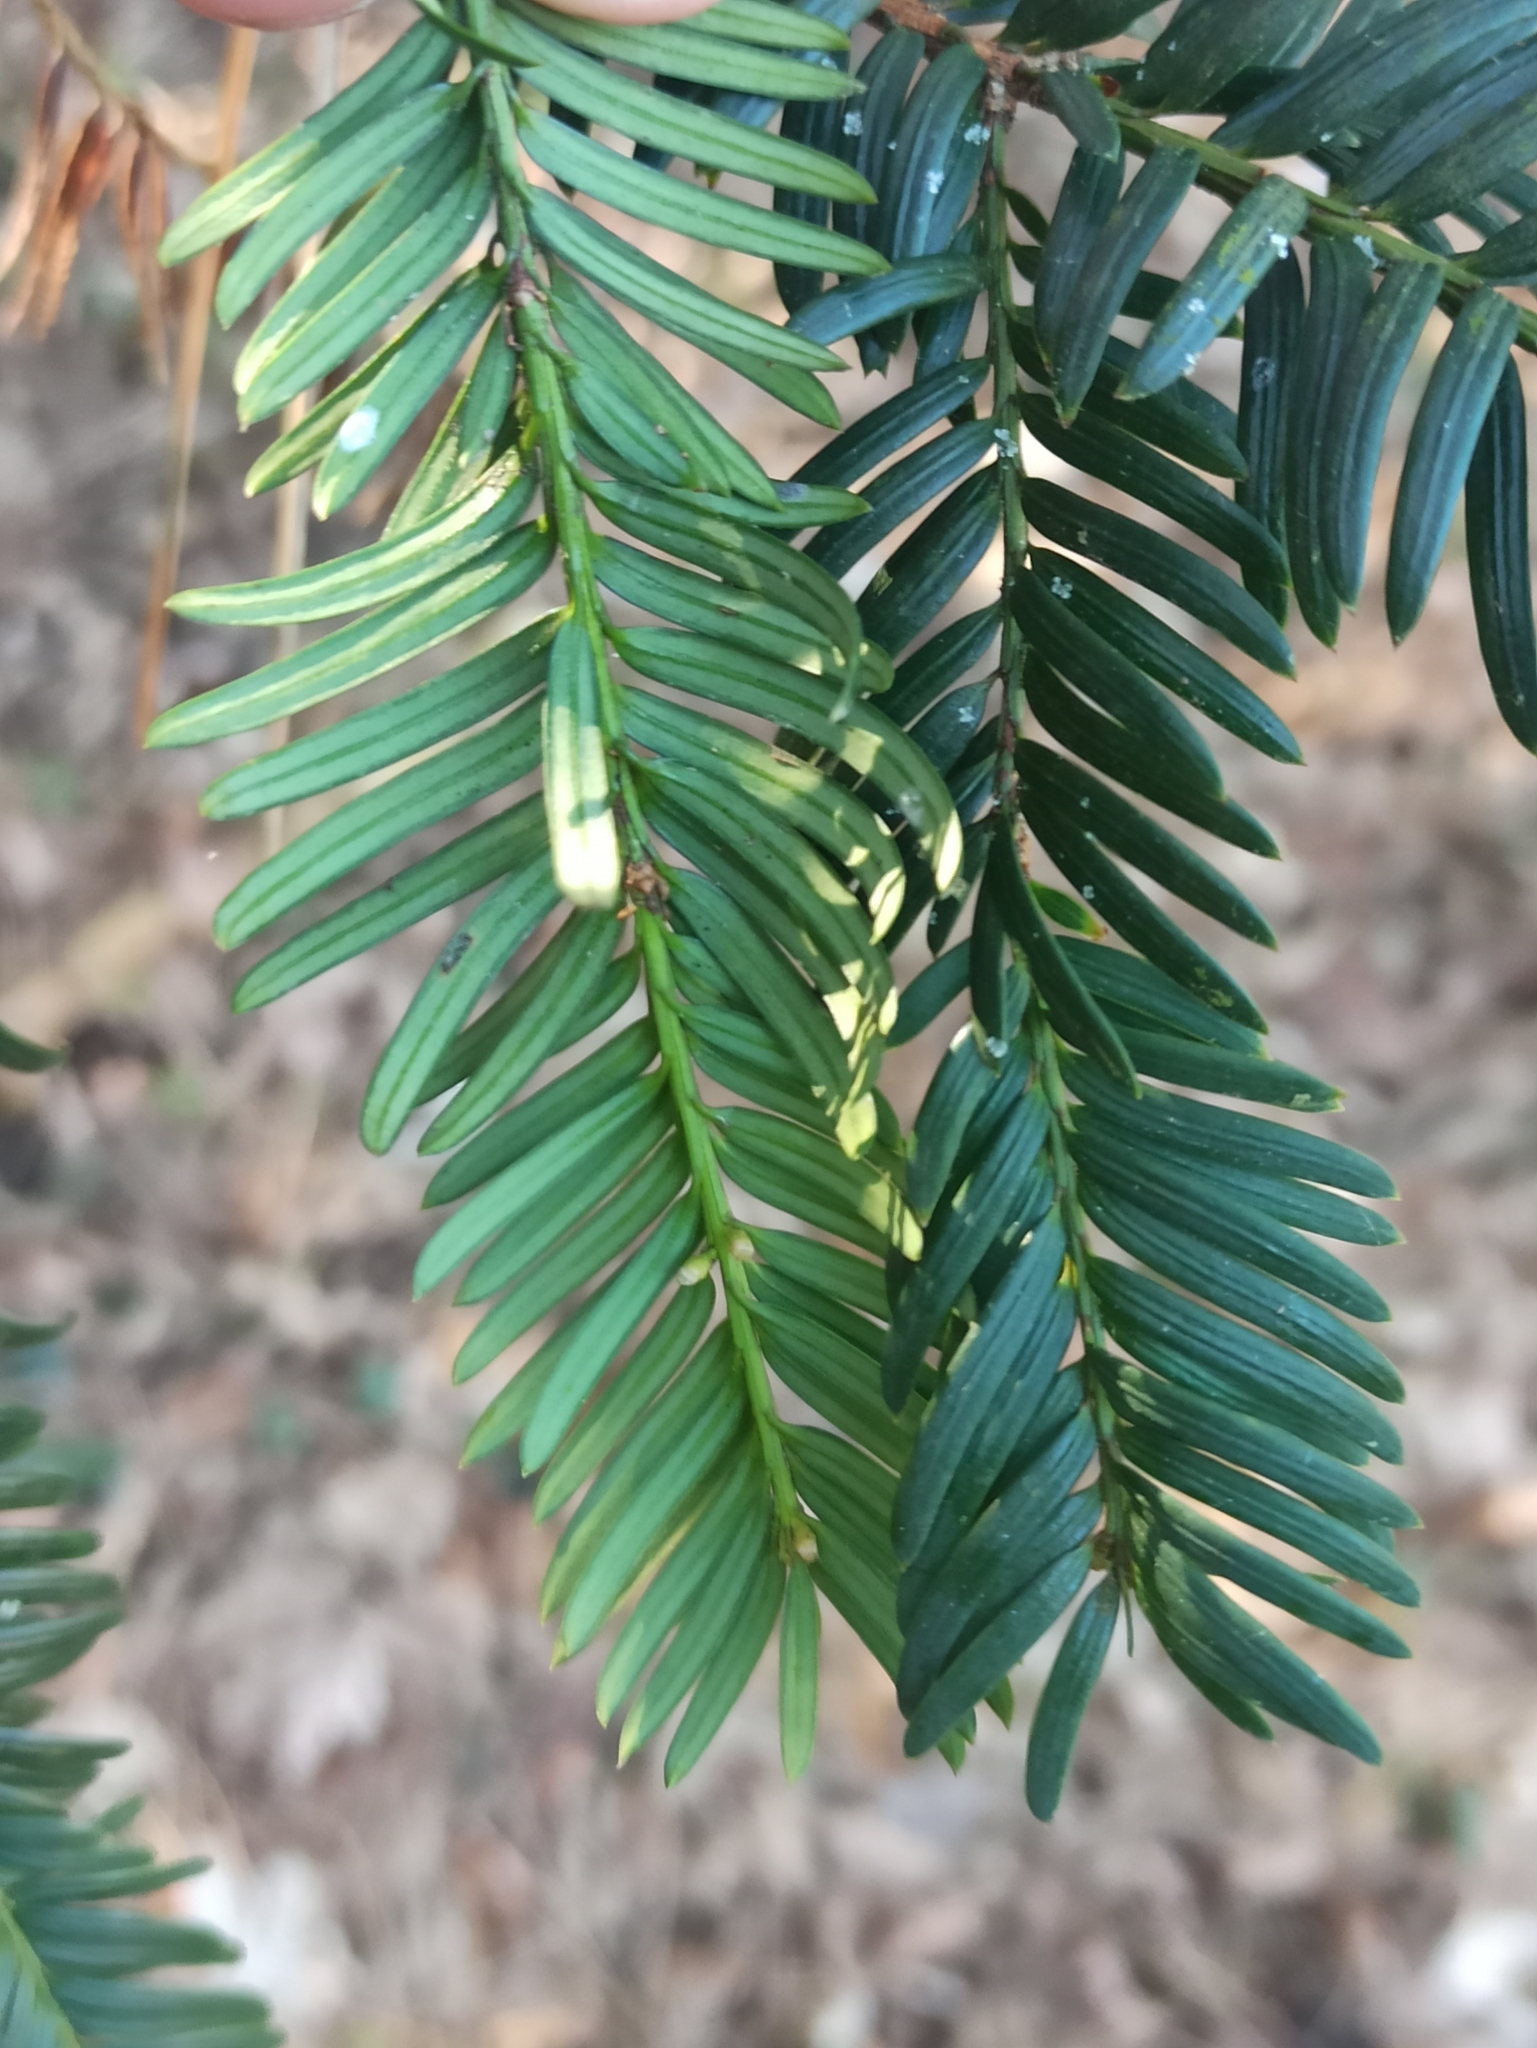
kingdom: Plantae
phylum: Tracheophyta
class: Pinopsida
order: Pinales
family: Taxaceae
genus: Taxus
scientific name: Taxus baccata
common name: Yew
